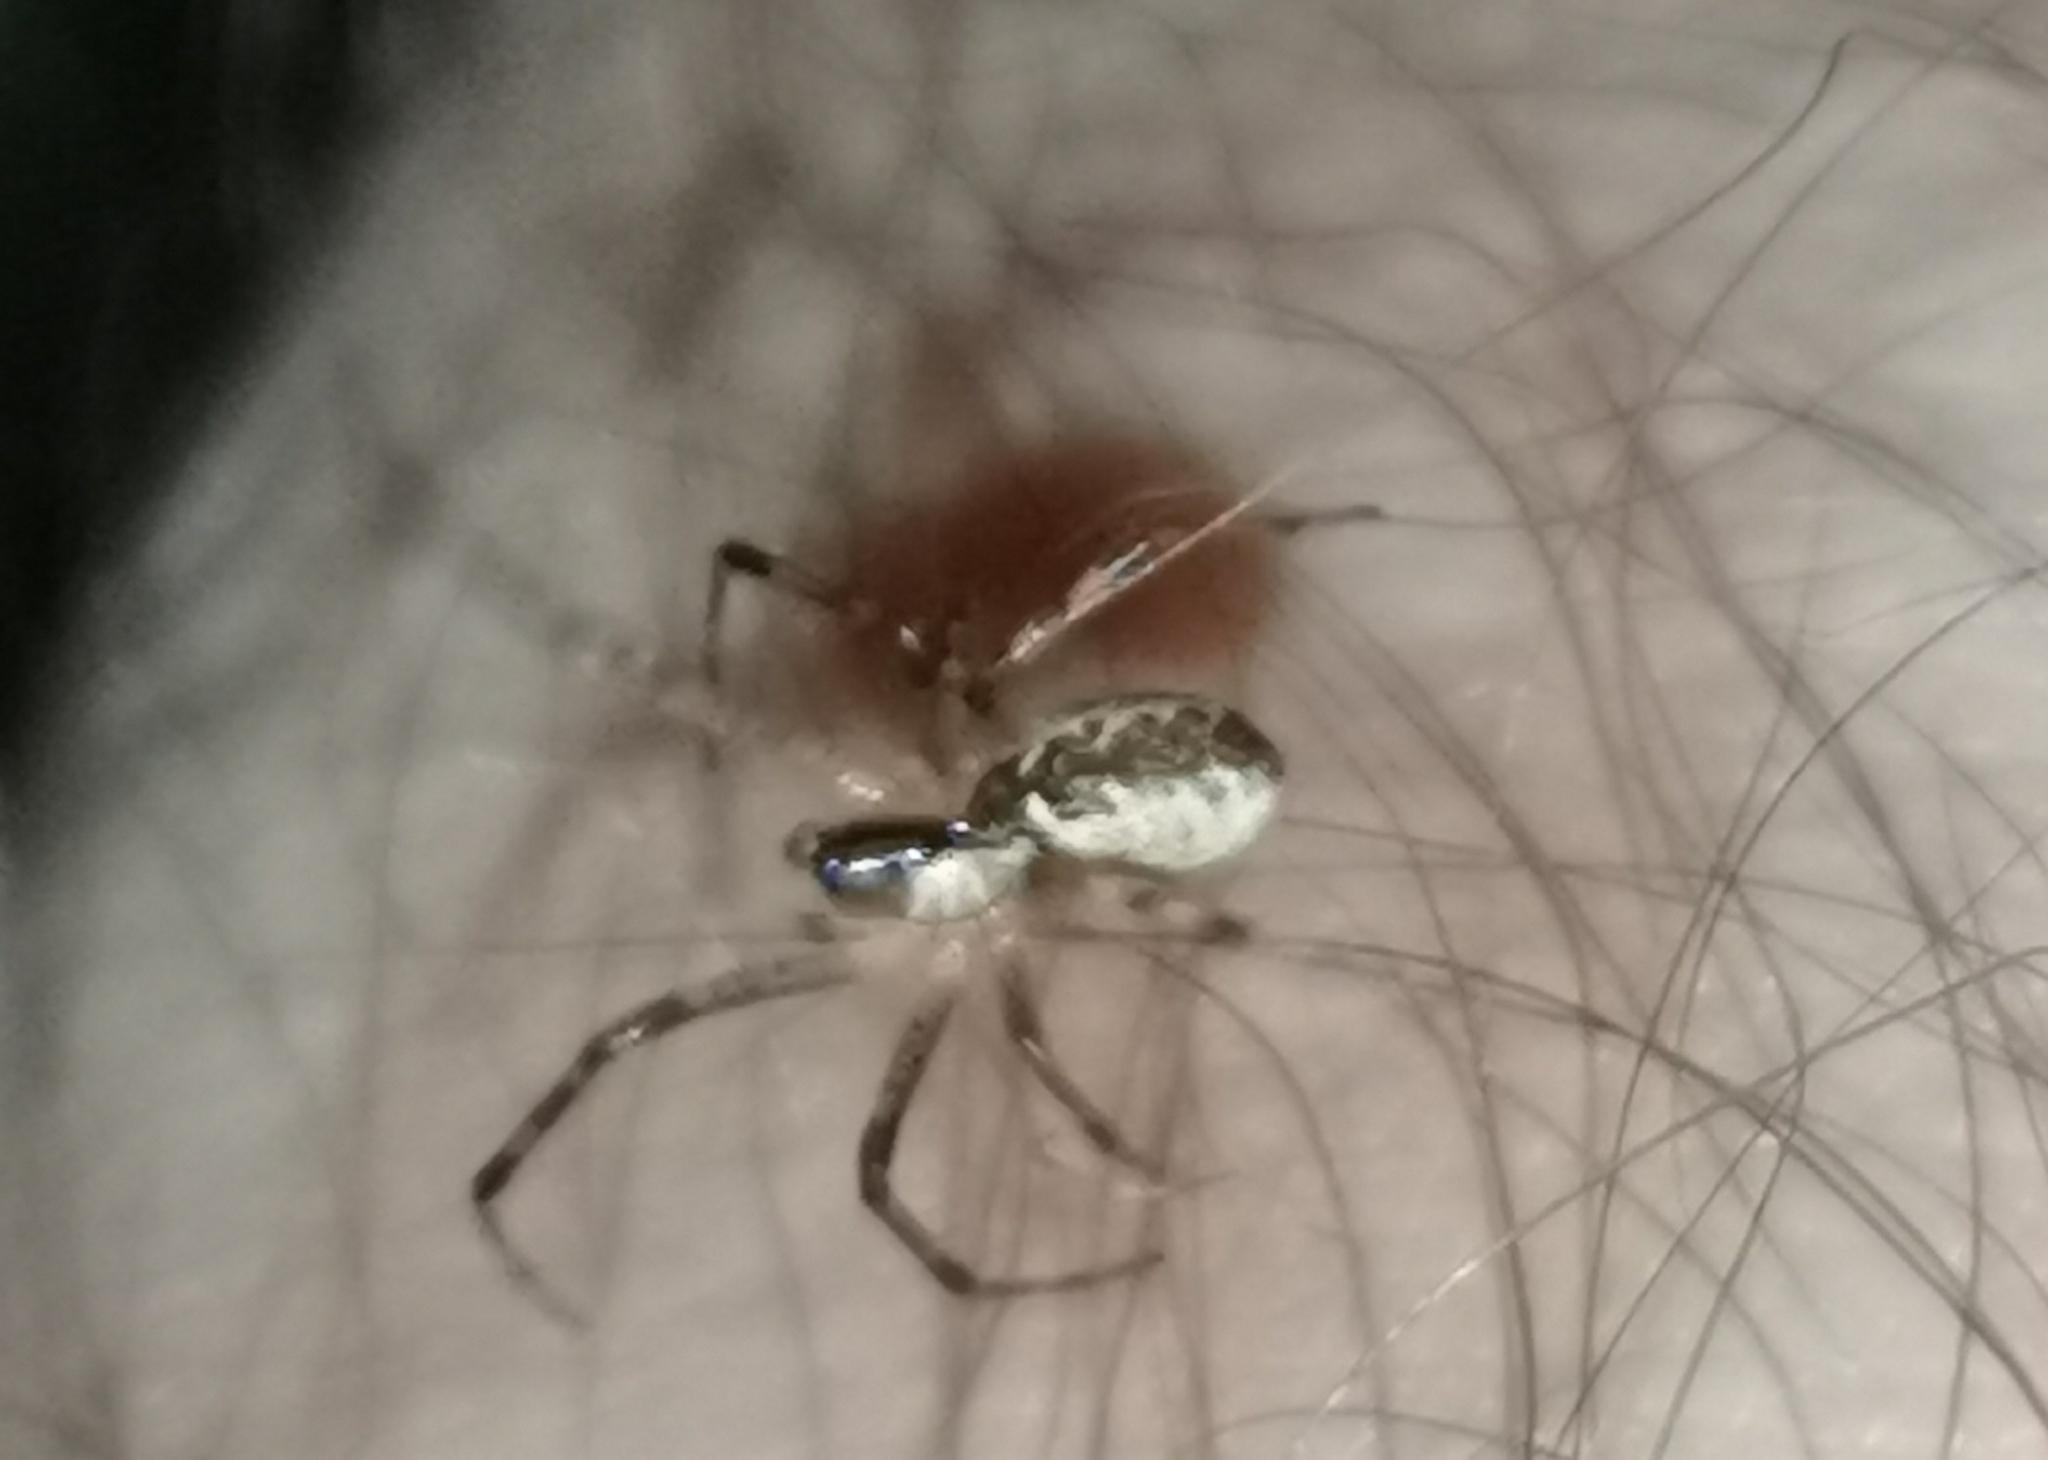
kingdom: Animalia
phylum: Arthropoda
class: Arachnida
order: Araneae
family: Linyphiidae
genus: Pityohyphantes
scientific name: Pityohyphantes phrygianus
